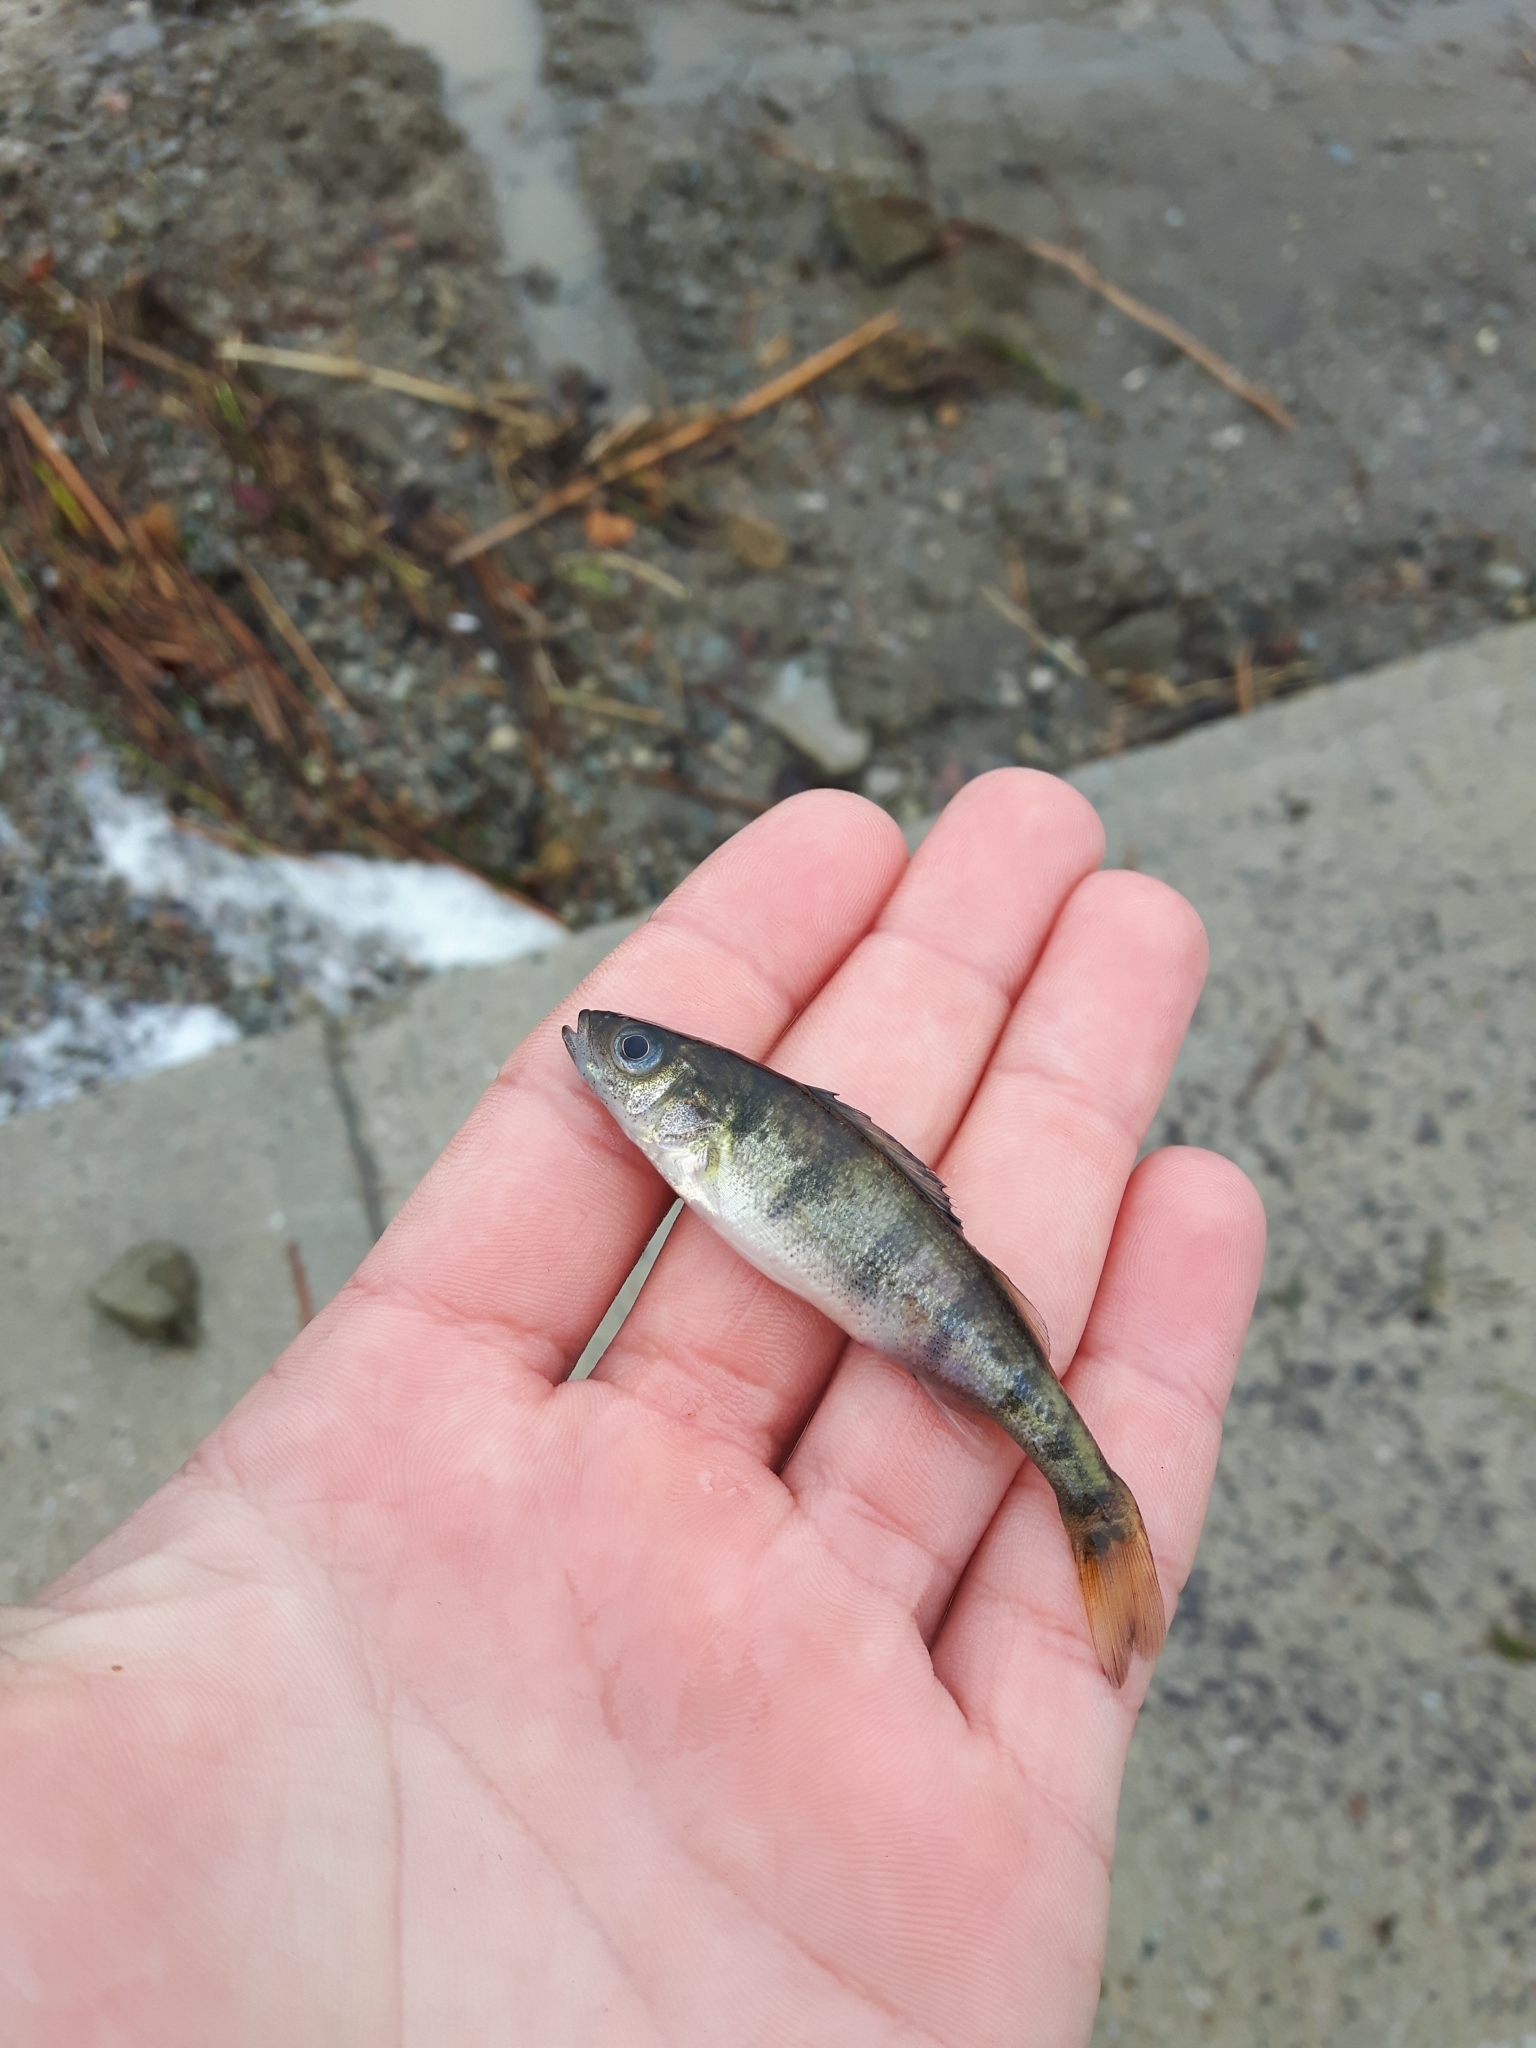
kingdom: Animalia
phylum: Chordata
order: Perciformes
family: Percidae
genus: Perca
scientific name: Perca flavescens
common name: Yellow perch
